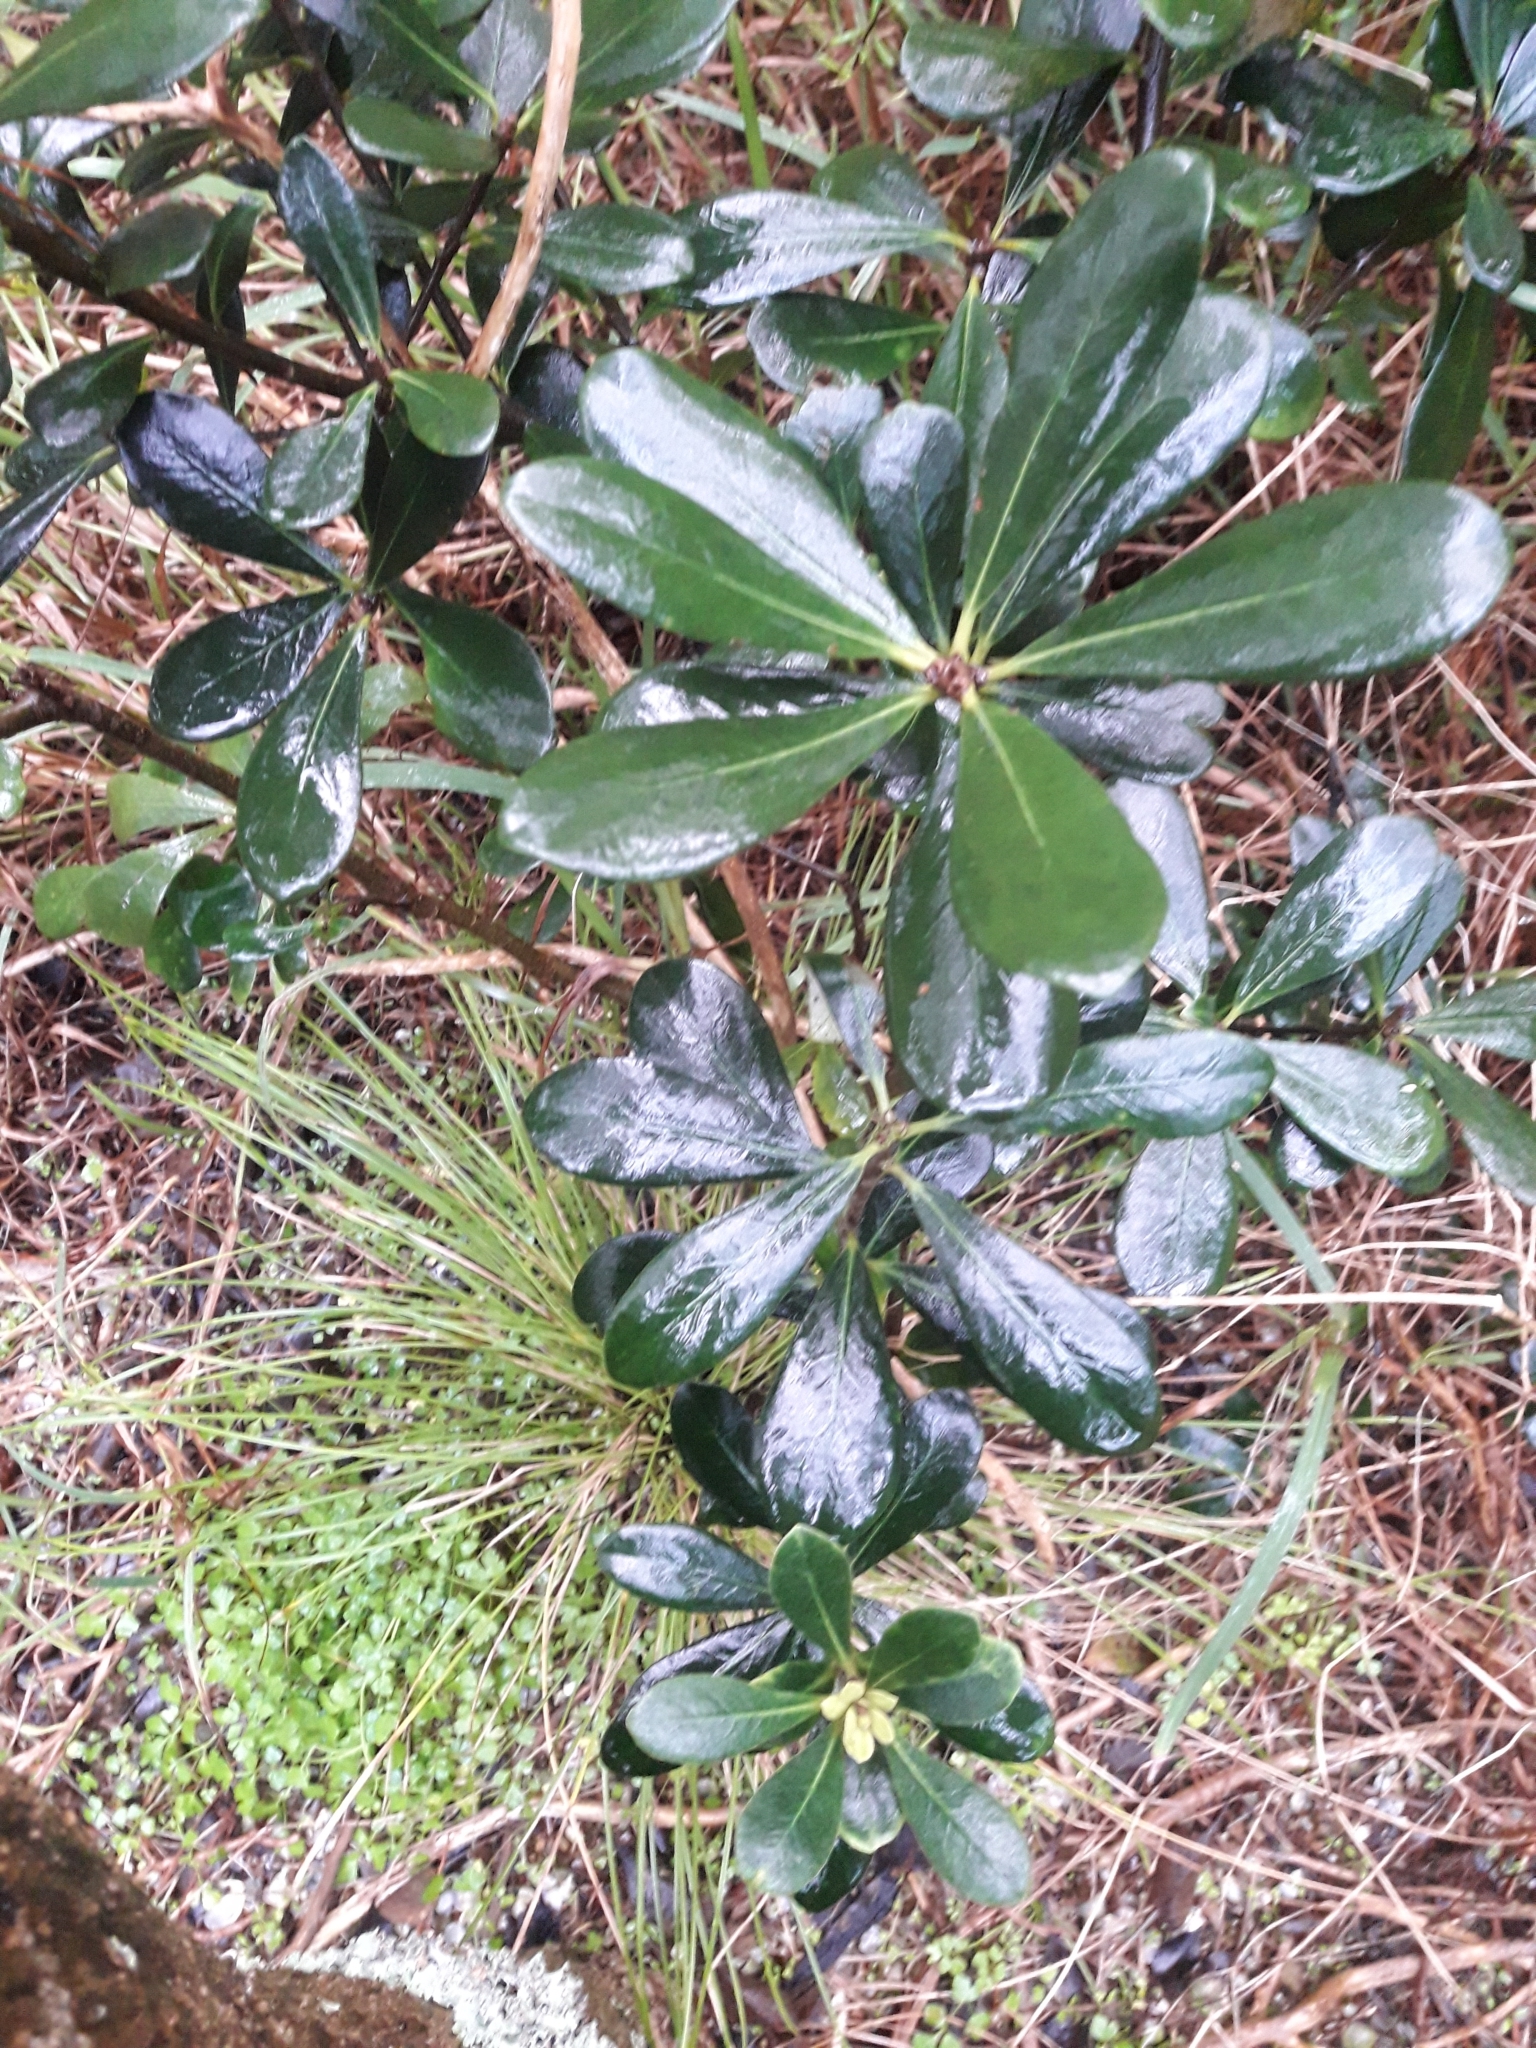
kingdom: Plantae
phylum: Tracheophyta
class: Magnoliopsida
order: Apiales
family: Pittosporaceae
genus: Pittosporum
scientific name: Pittosporum crassifolium
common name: Karo
